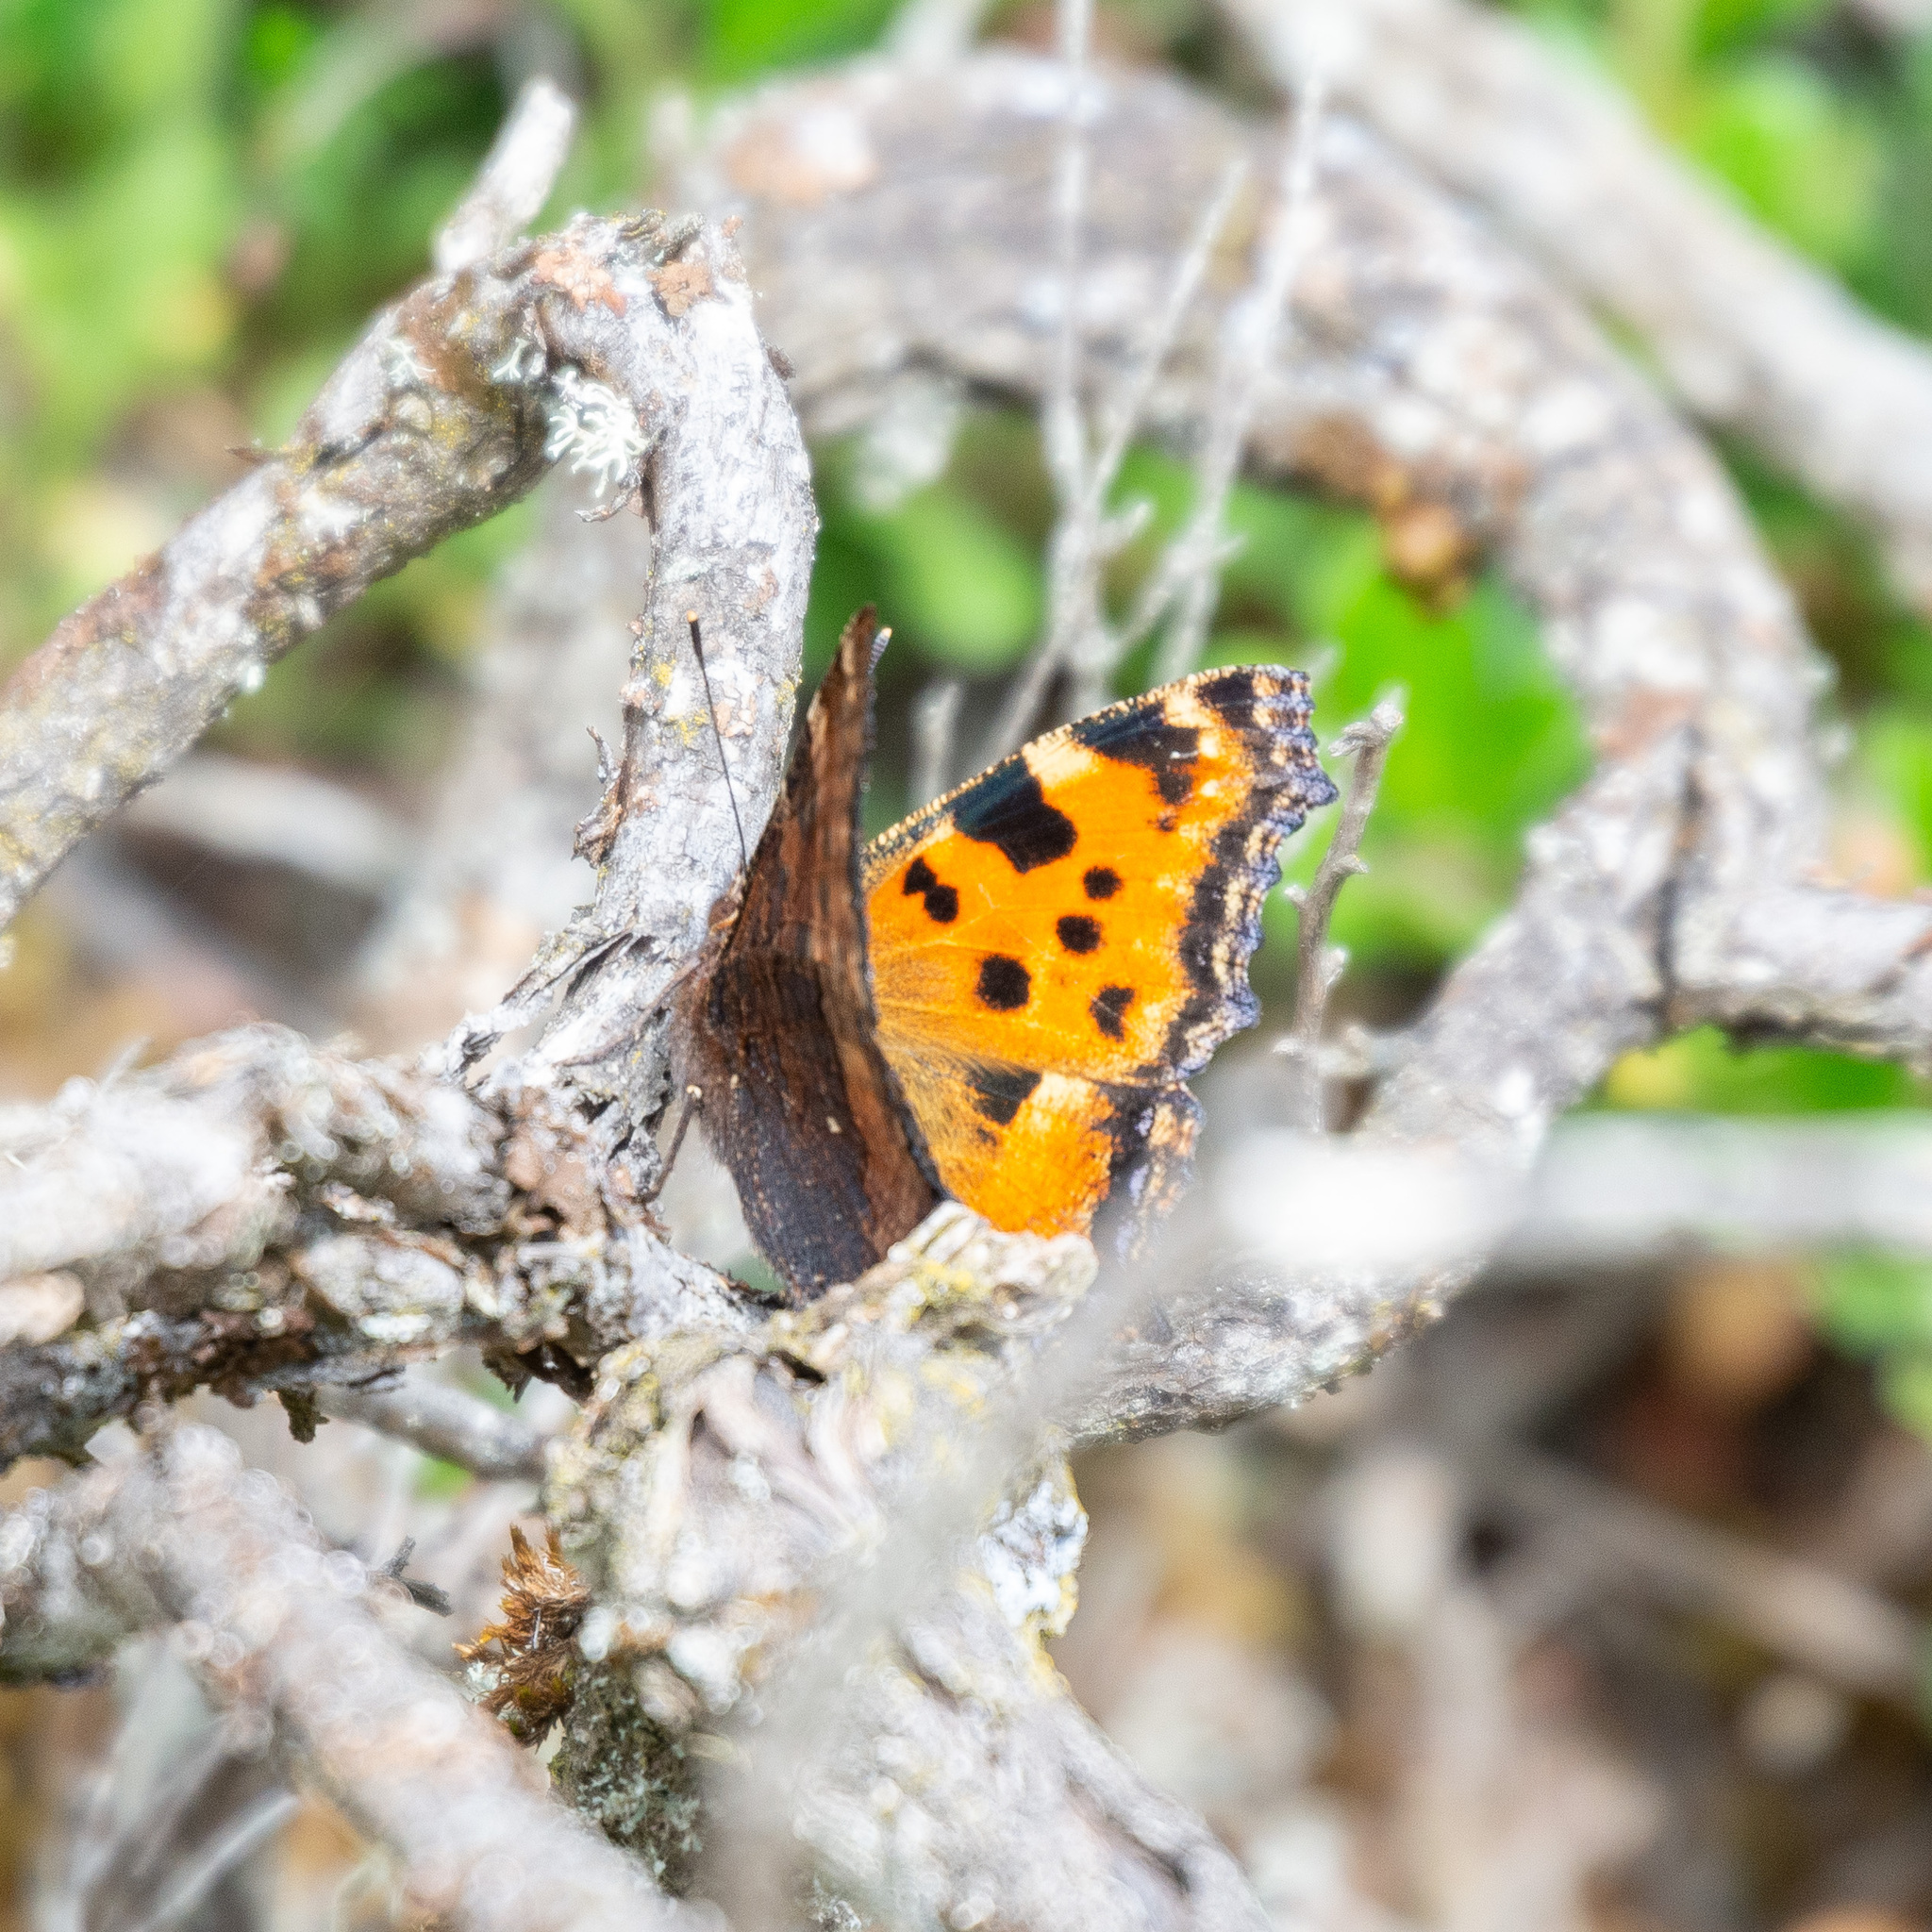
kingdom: Animalia
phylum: Arthropoda
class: Insecta
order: Lepidoptera
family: Nymphalidae
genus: Nymphalis
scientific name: Nymphalis polychloros
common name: Large tortoiseshell
